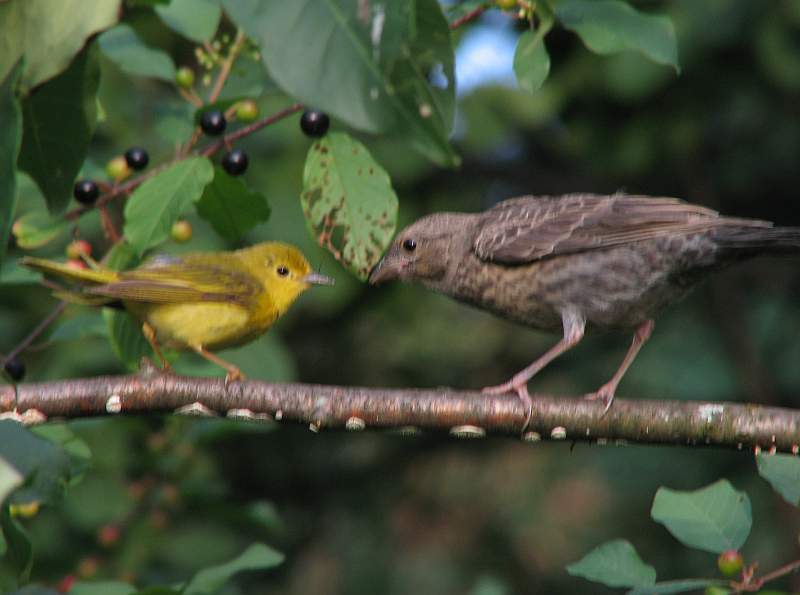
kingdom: Animalia
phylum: Chordata
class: Aves
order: Passeriformes
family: Icteridae
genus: Molothrus
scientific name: Molothrus ater
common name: Brown-headed cowbird
